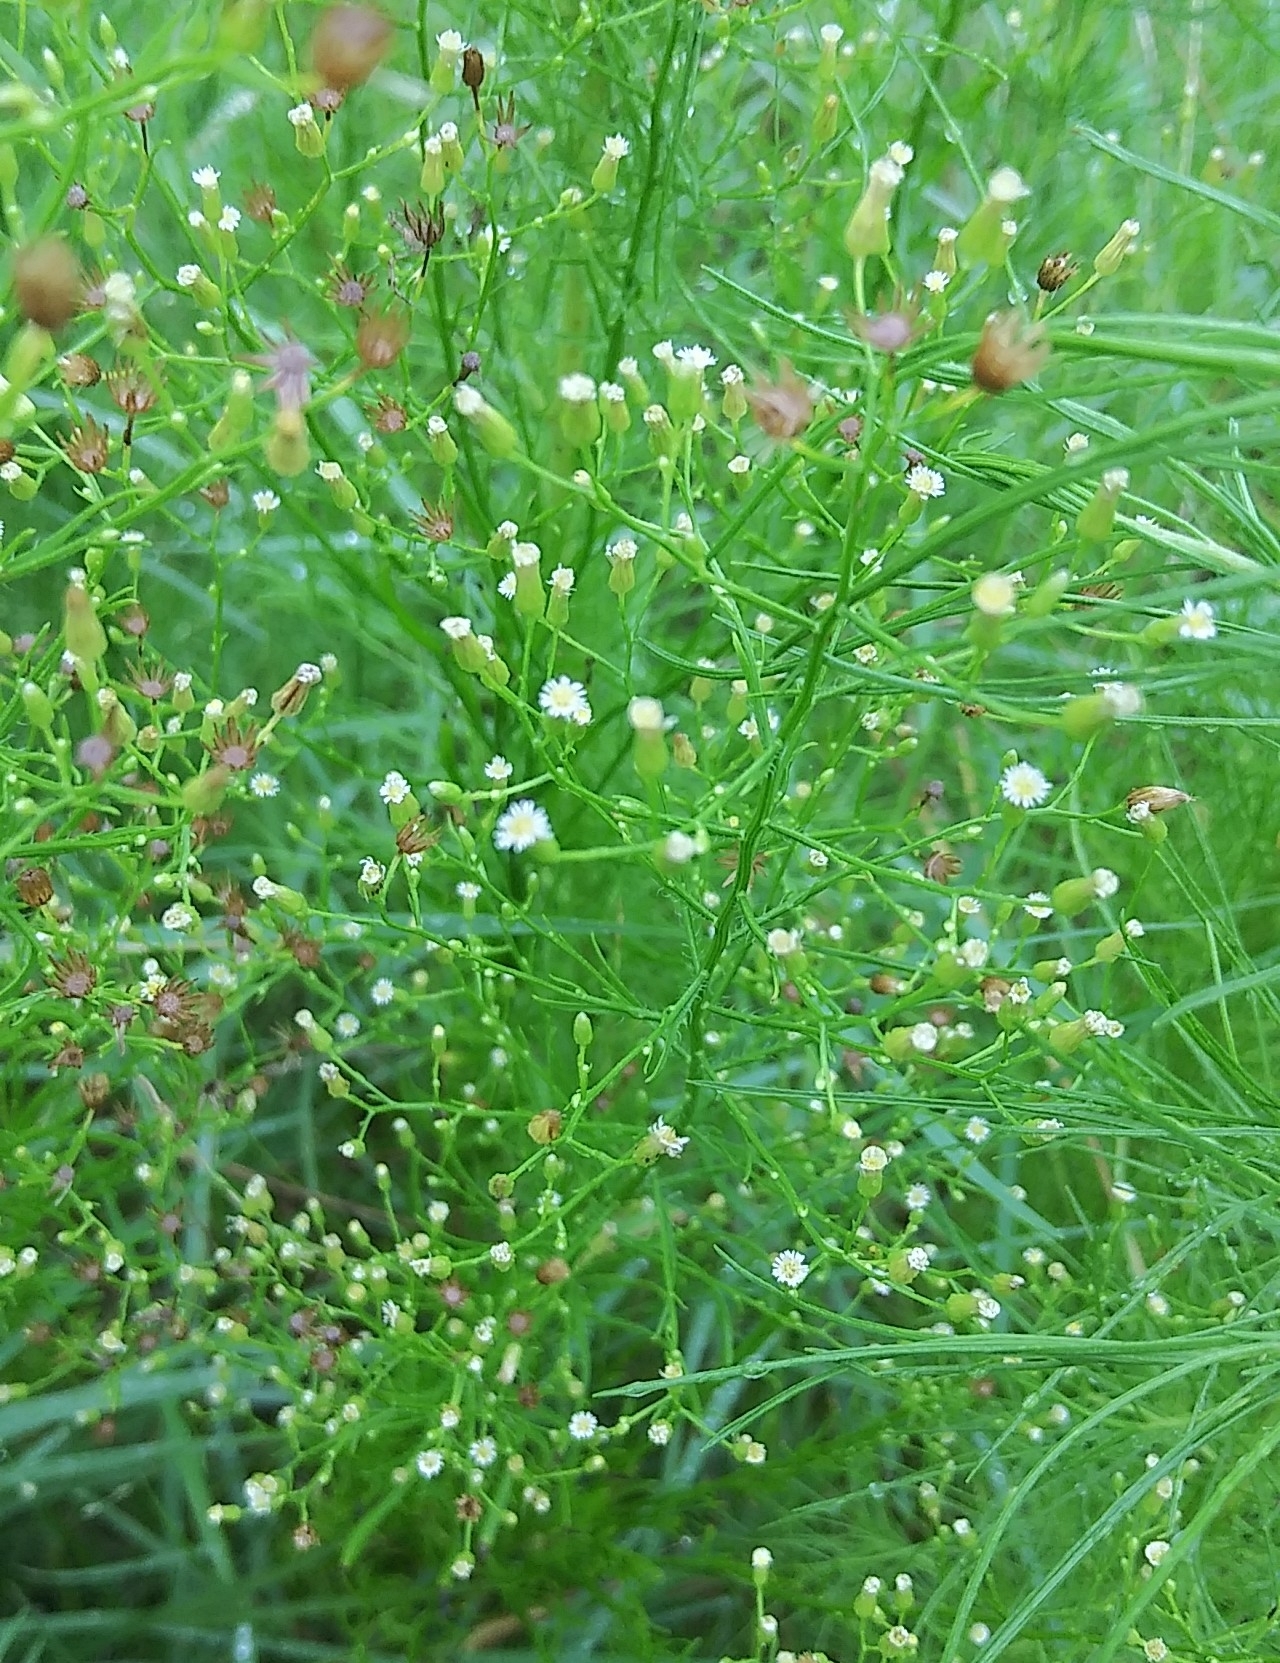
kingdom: Plantae
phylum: Tracheophyta
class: Magnoliopsida
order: Asterales
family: Asteraceae
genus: Erigeron
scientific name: Erigeron canadensis
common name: Canadian fleabane
